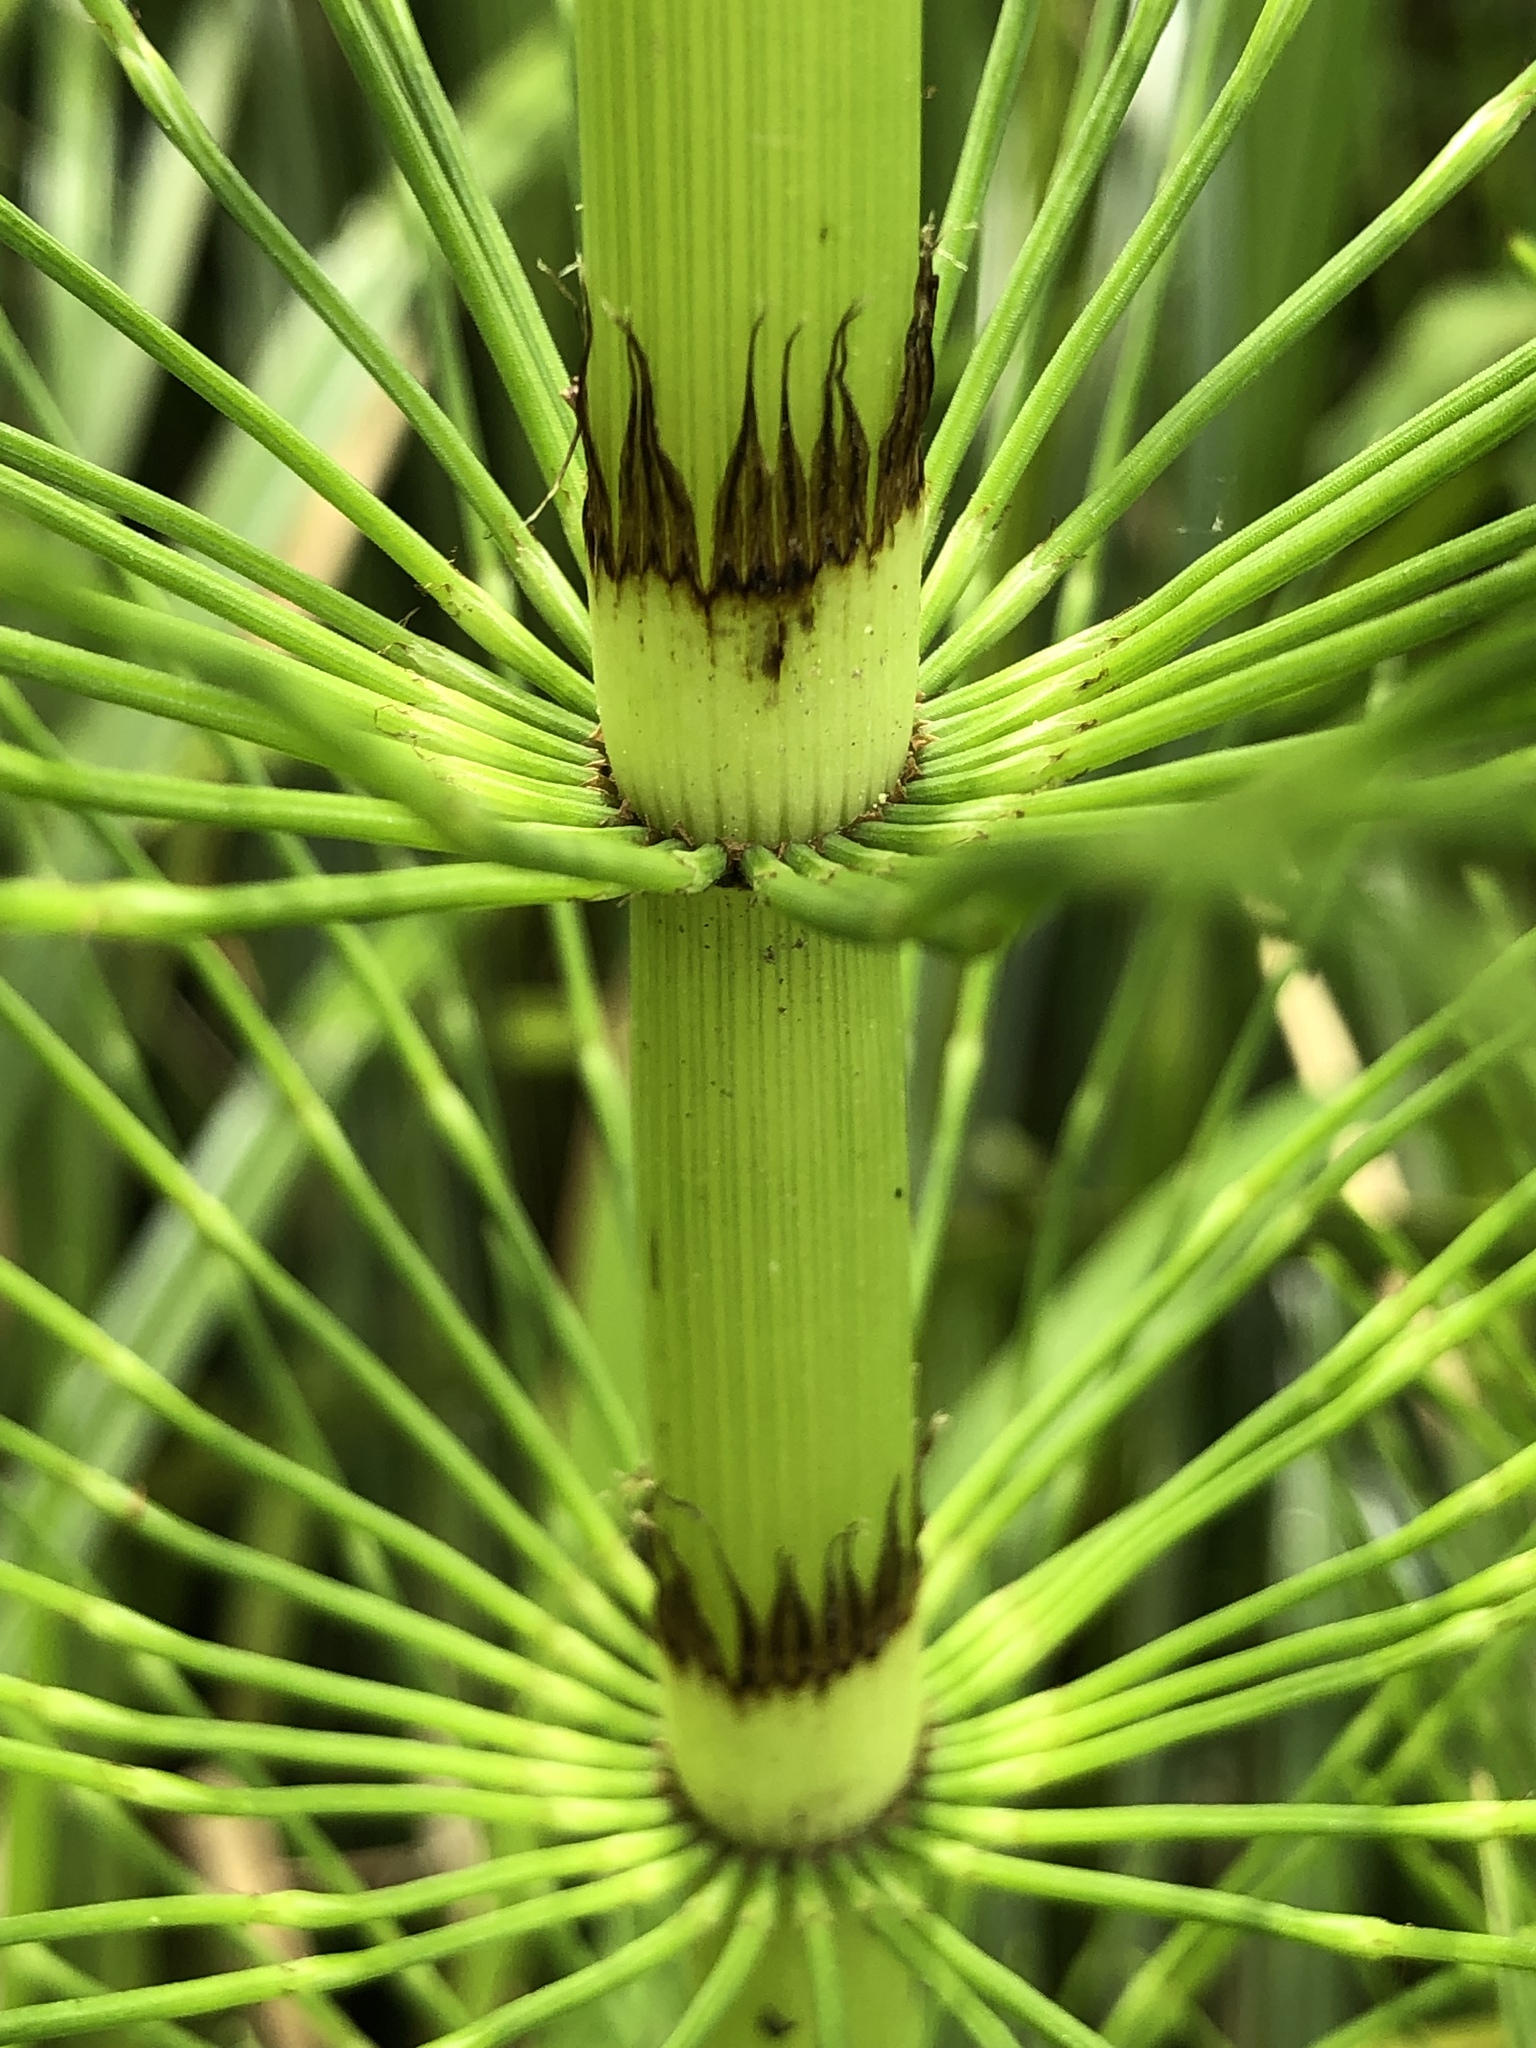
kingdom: Plantae
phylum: Tracheophyta
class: Polypodiopsida
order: Equisetales
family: Equisetaceae
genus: Equisetum
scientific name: Equisetum braunii
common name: Braun's horsetail
